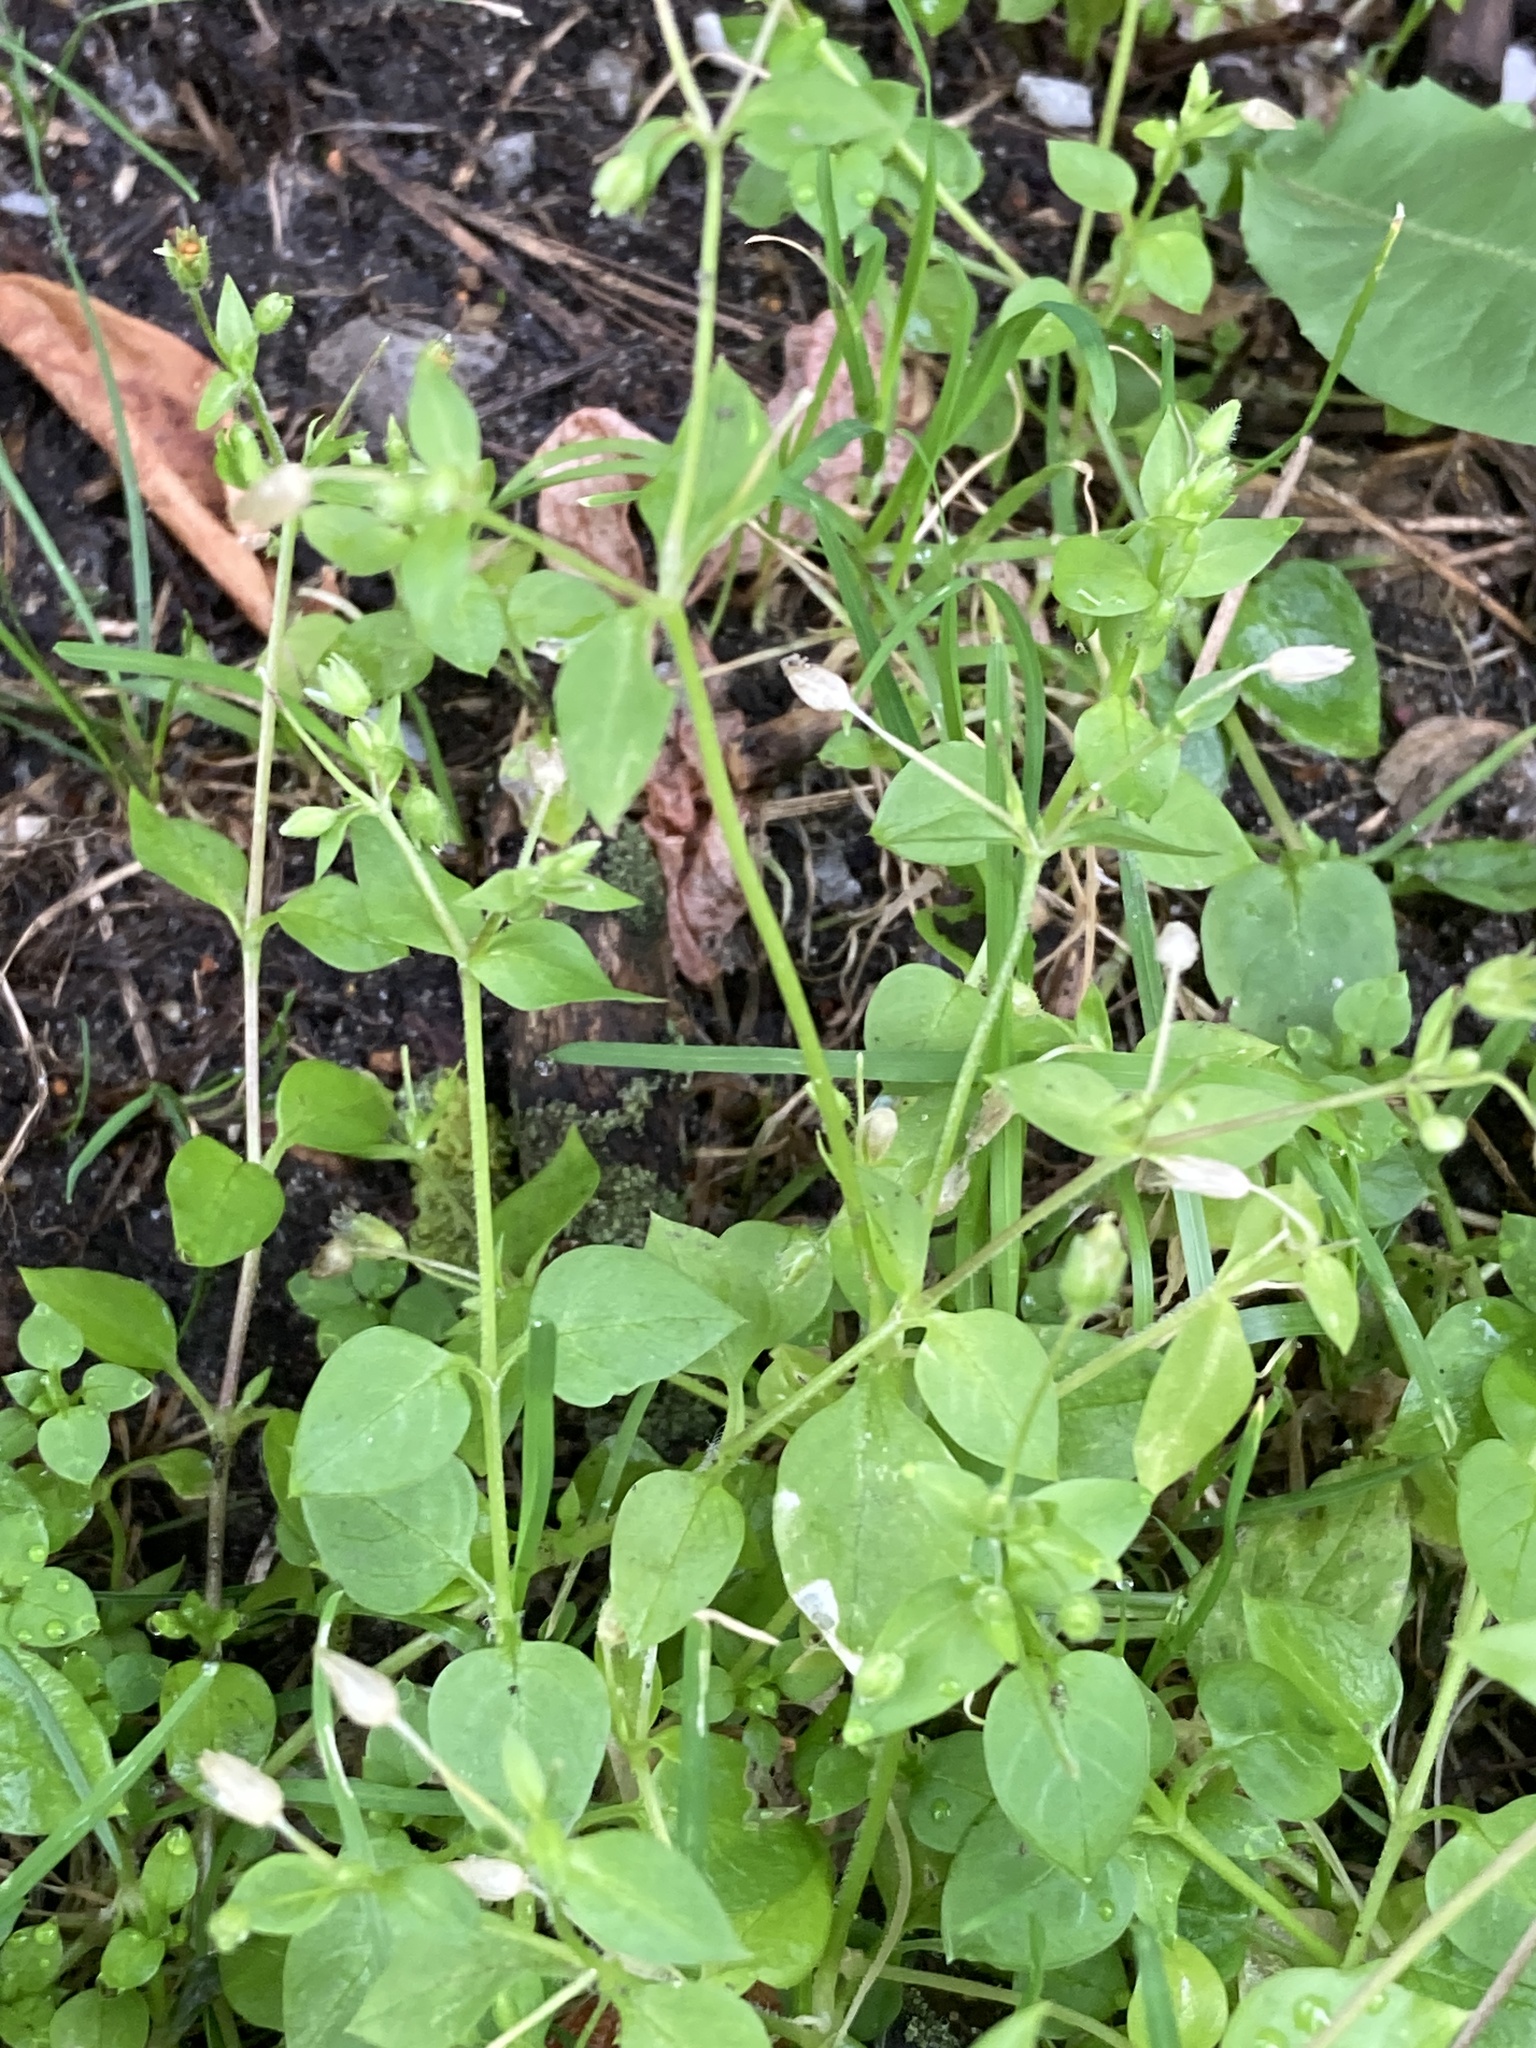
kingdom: Plantae
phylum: Tracheophyta
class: Magnoliopsida
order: Caryophyllales
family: Caryophyllaceae
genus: Stellaria
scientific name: Stellaria media
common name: Common chickweed
